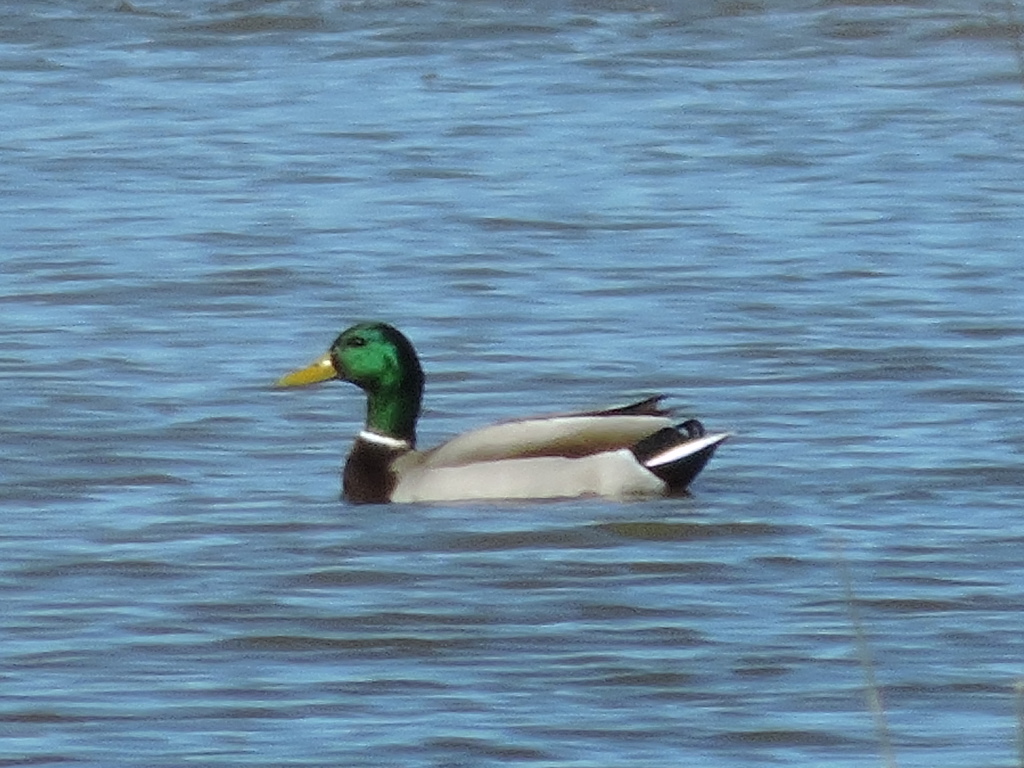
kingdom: Animalia
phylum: Chordata
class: Aves
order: Anseriformes
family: Anatidae
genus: Anas
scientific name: Anas platyrhynchos
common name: Mallard
